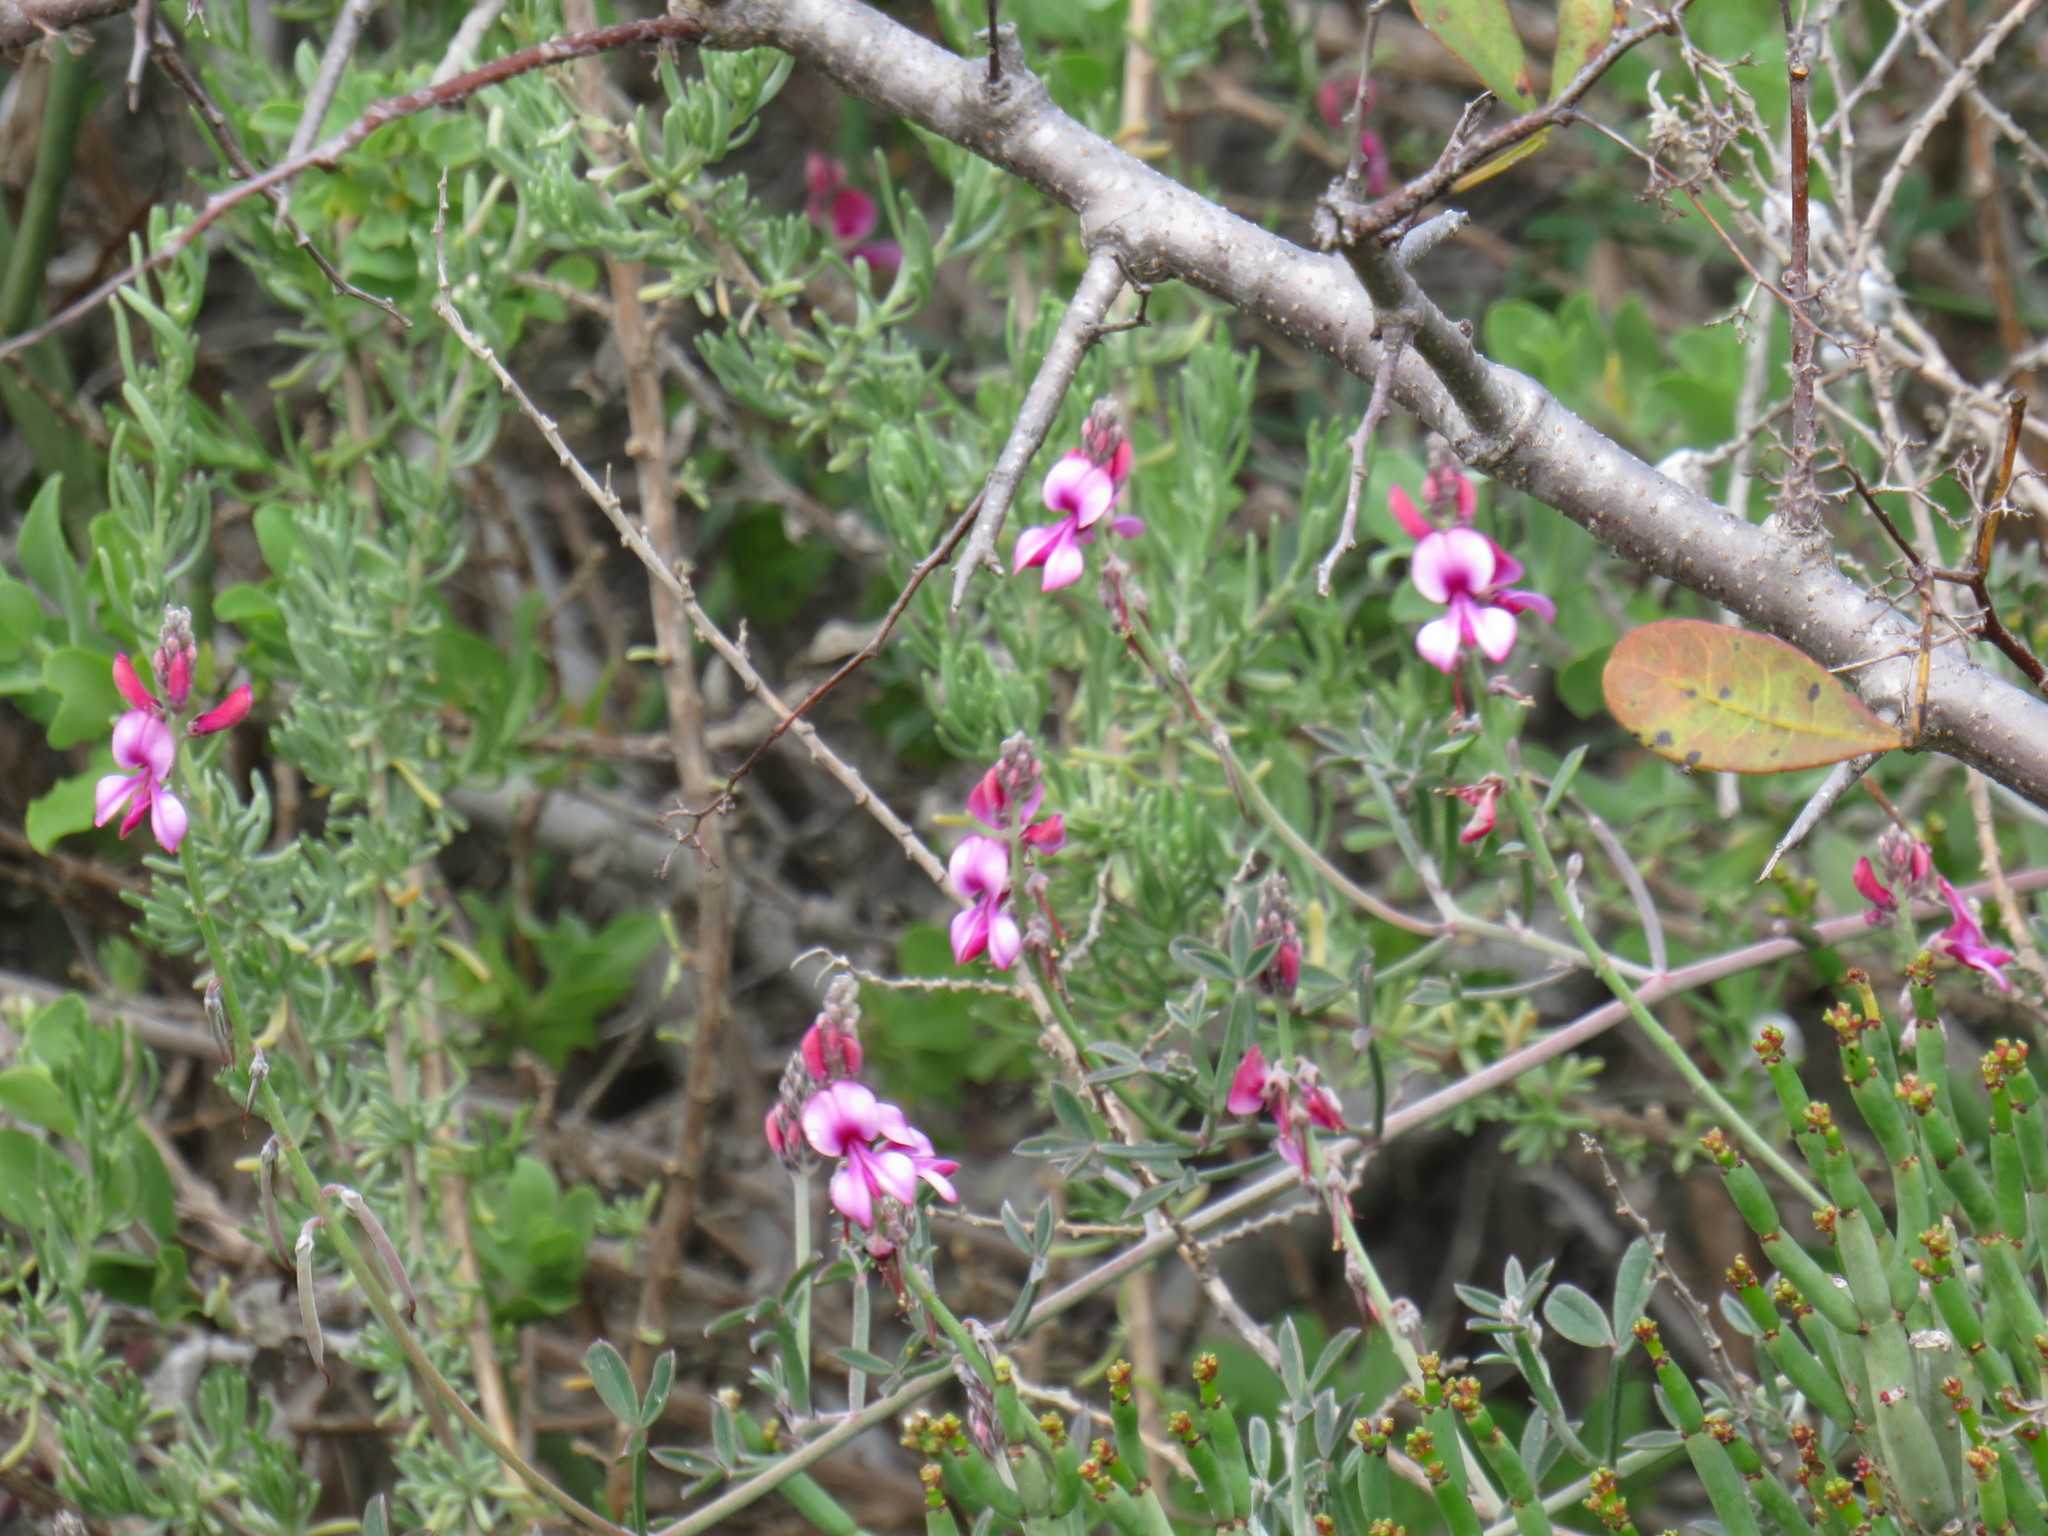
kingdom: Plantae
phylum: Tracheophyta
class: Magnoliopsida
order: Fabales
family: Fabaceae
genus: Indigofera
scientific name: Indigofera
